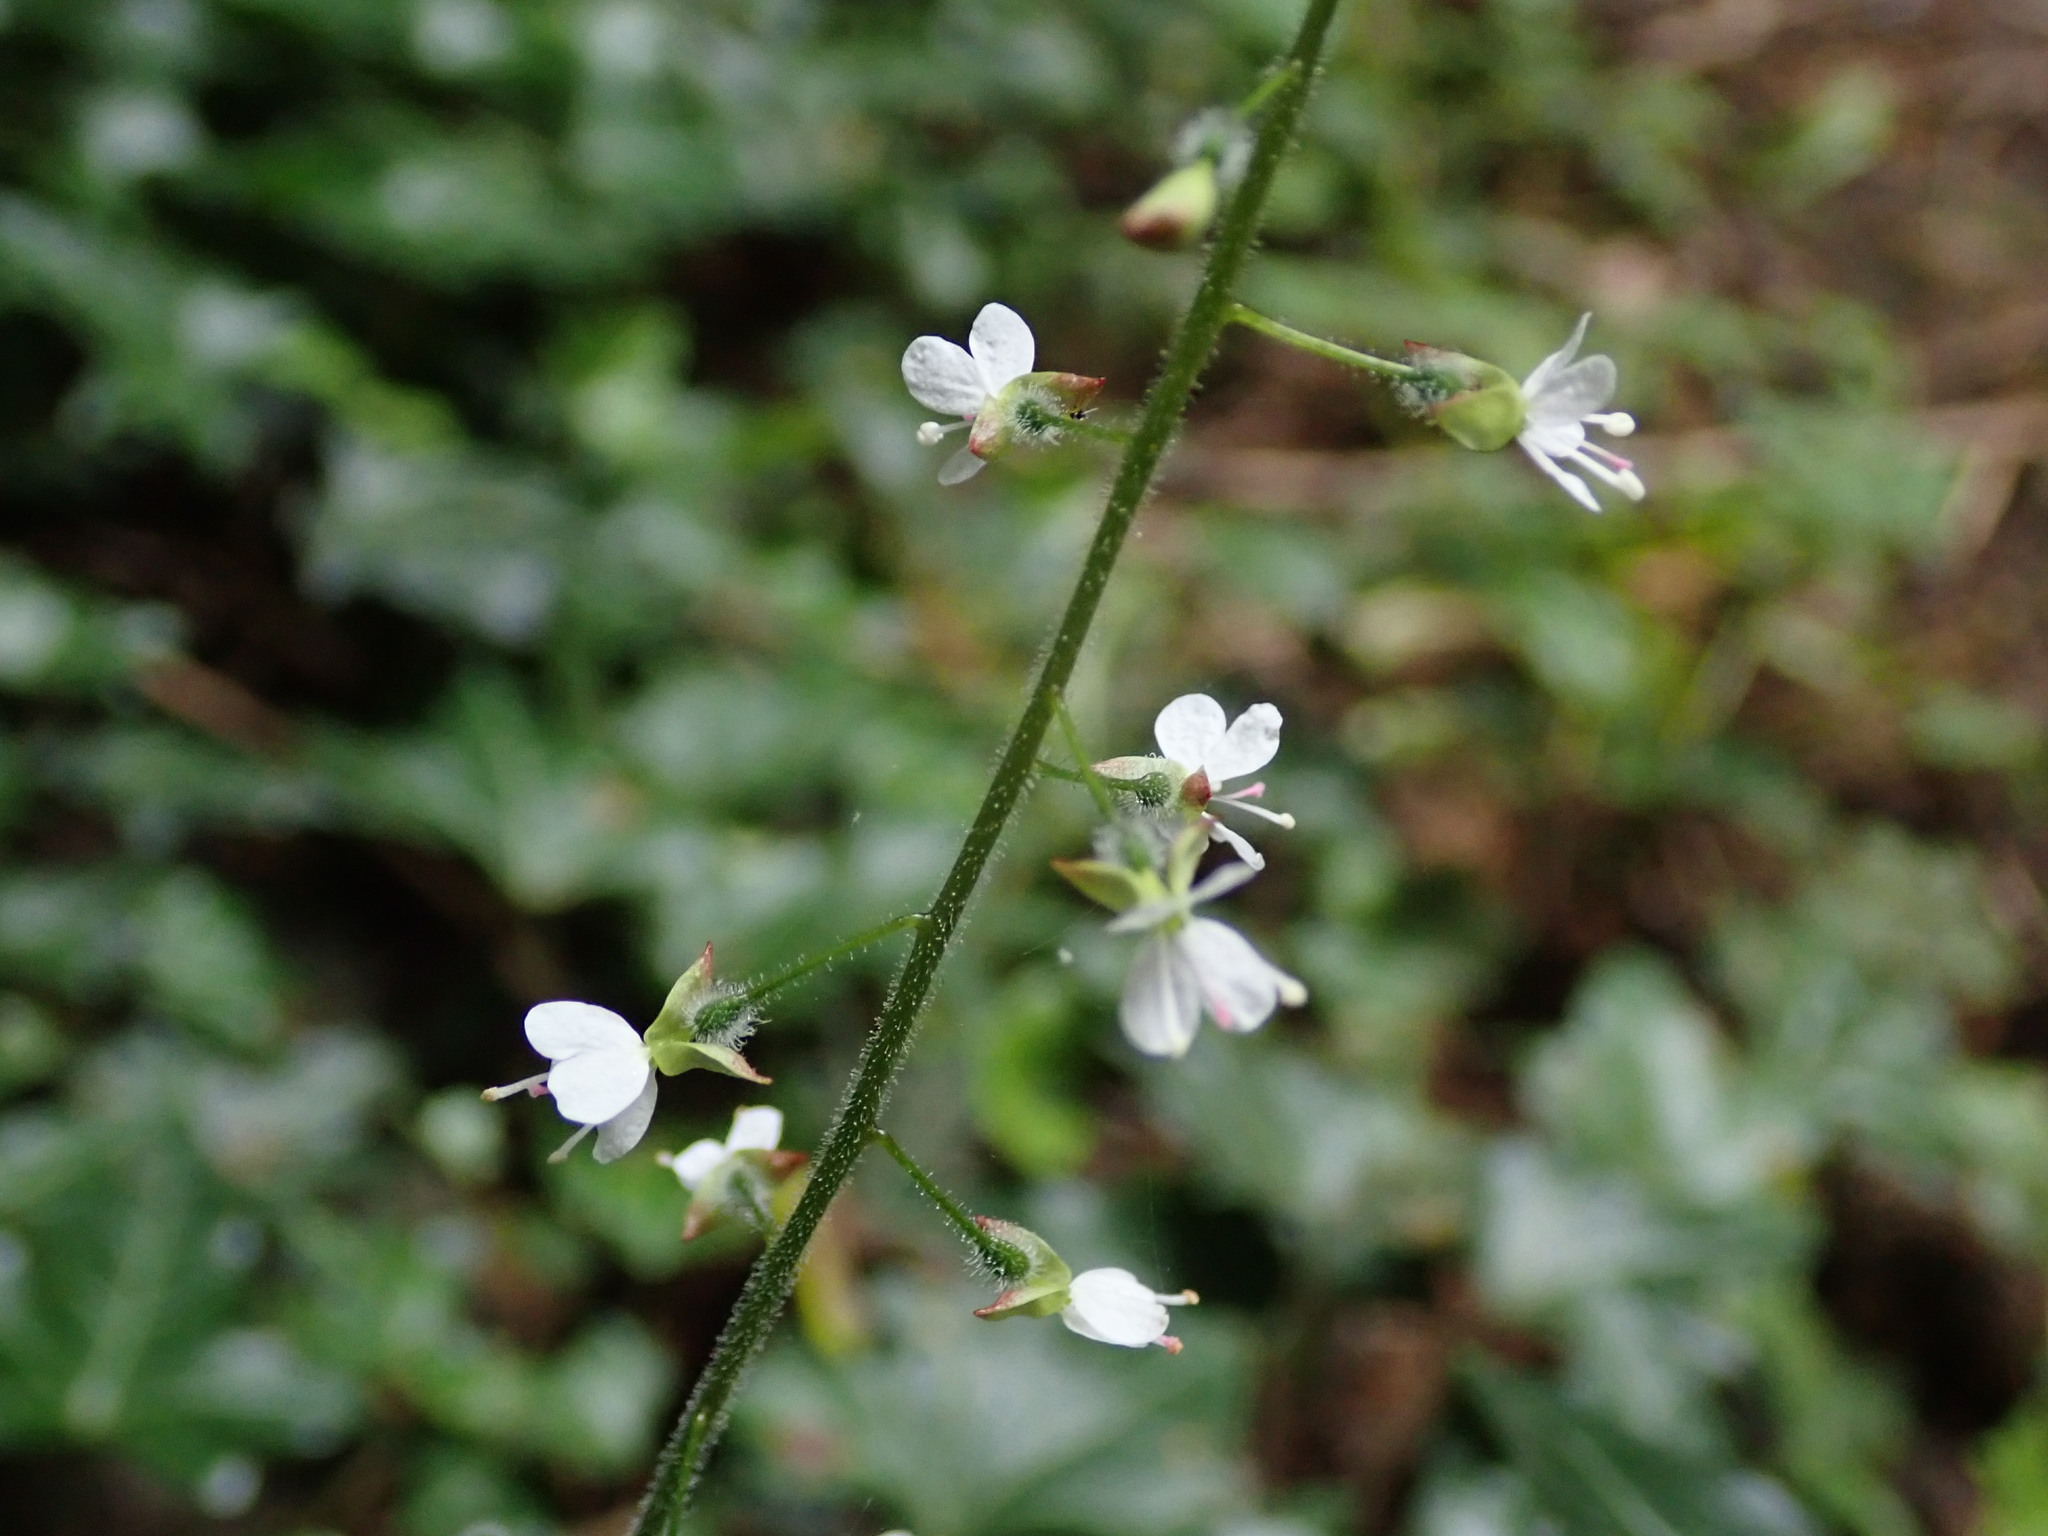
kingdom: Plantae
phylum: Tracheophyta
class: Magnoliopsida
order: Myrtales
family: Onagraceae
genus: Circaea
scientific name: Circaea lutetiana
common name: Enchanter's-nightshade
